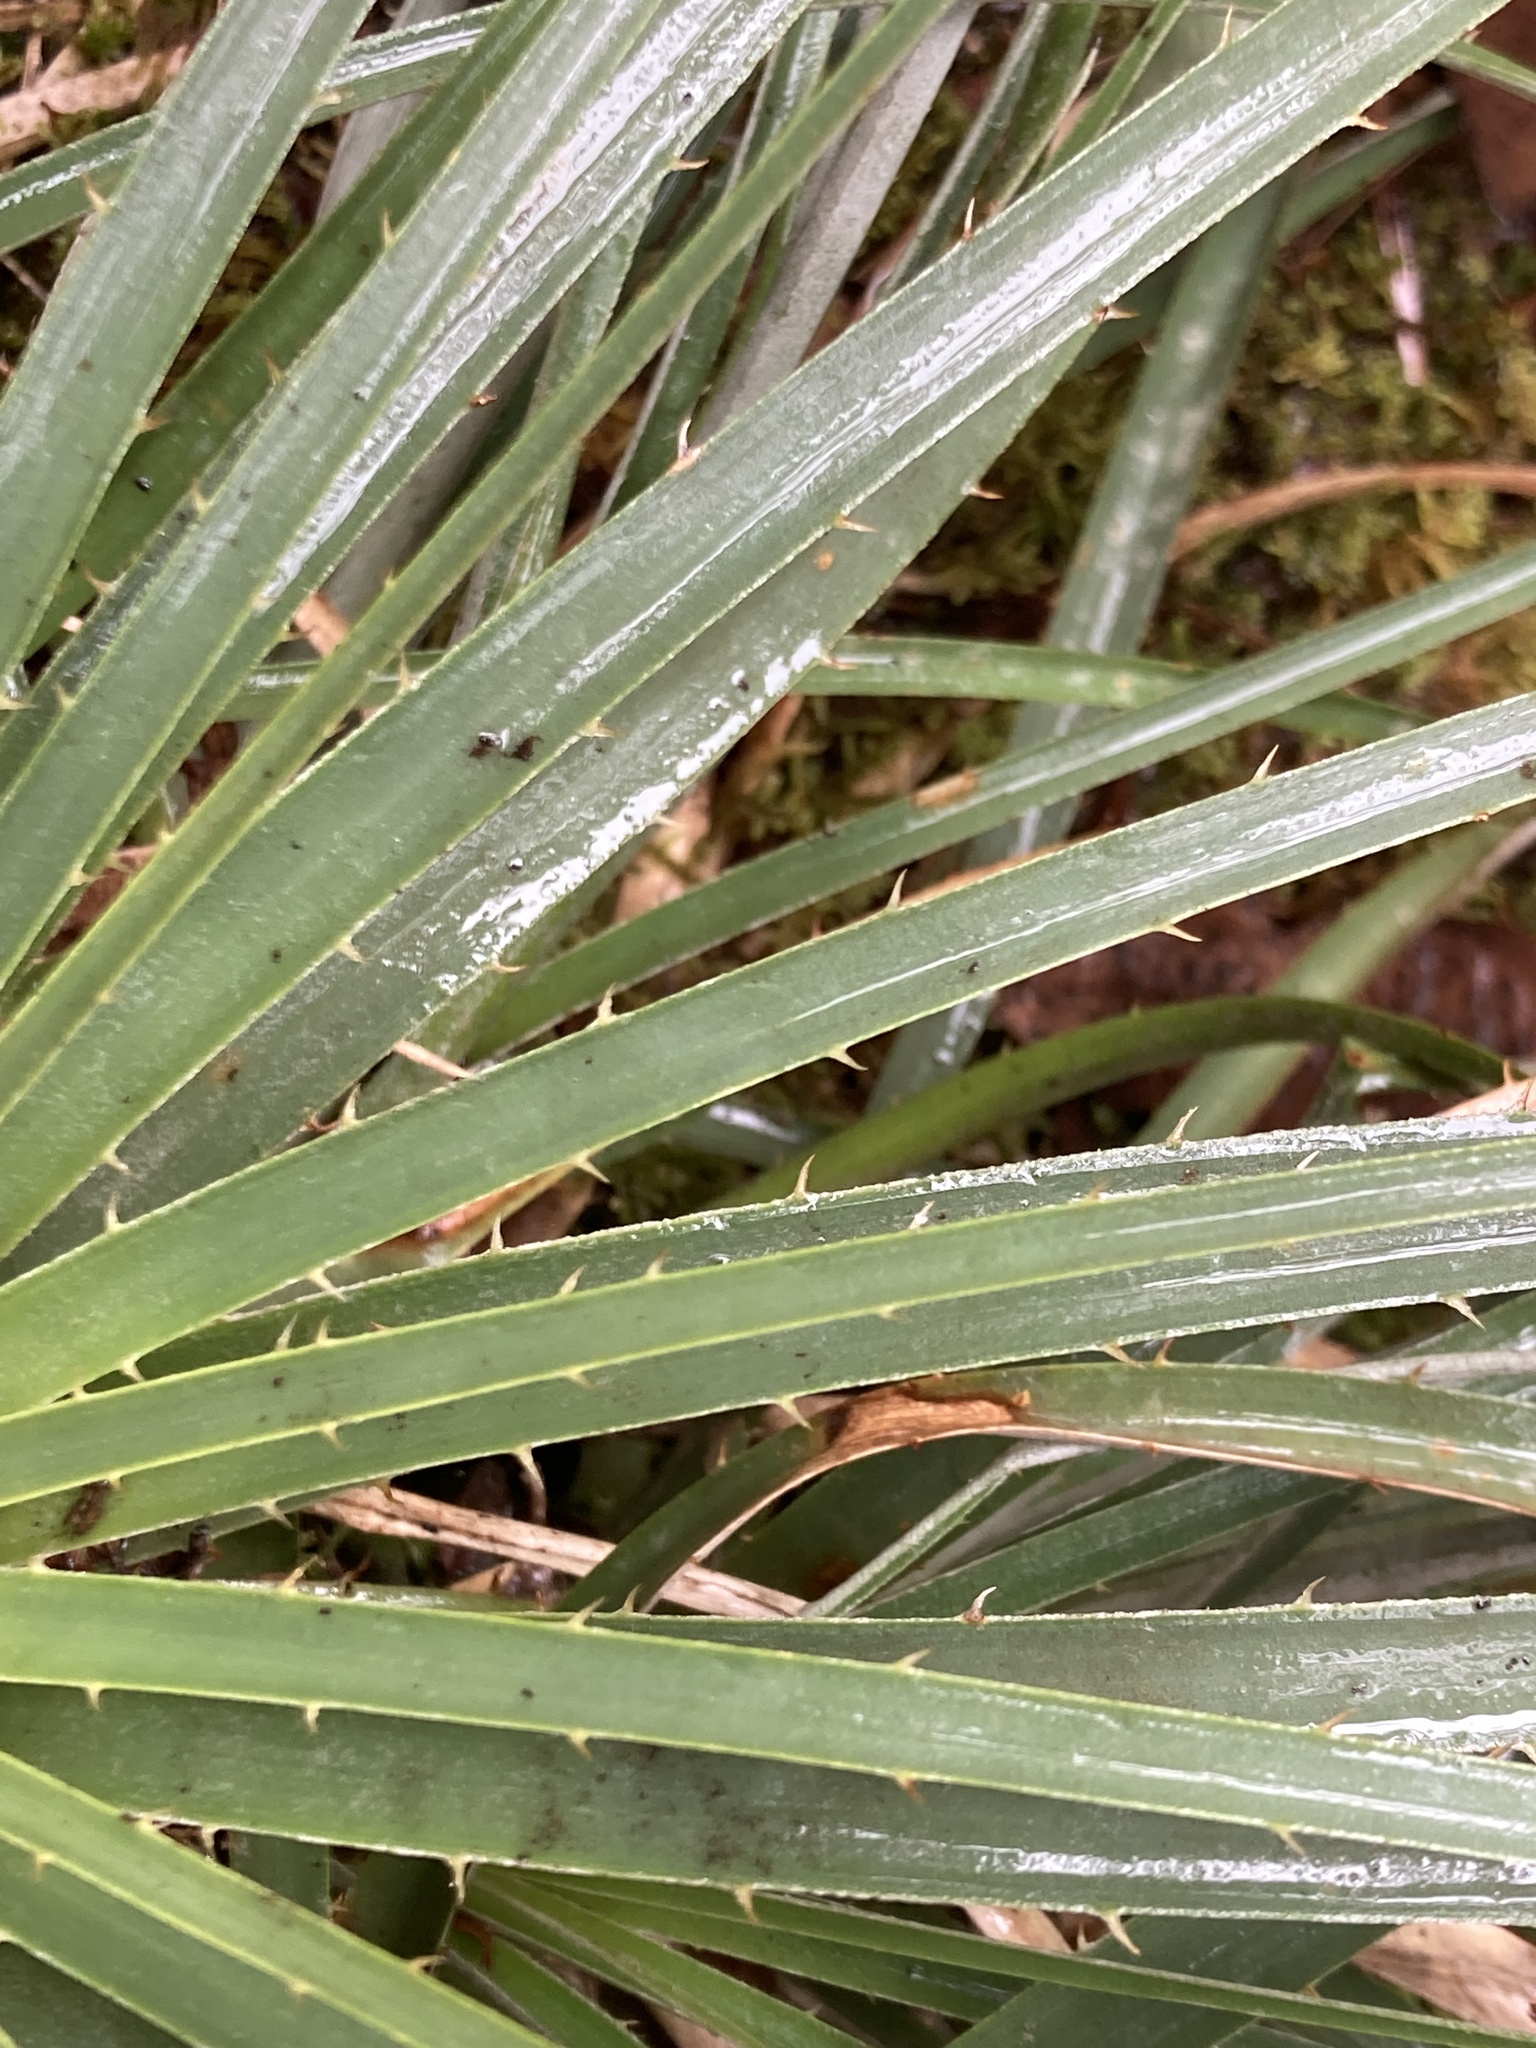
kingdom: Plantae
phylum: Tracheophyta
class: Liliopsida
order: Poales
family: Bromeliaceae
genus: Puya
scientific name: Puya lineata
